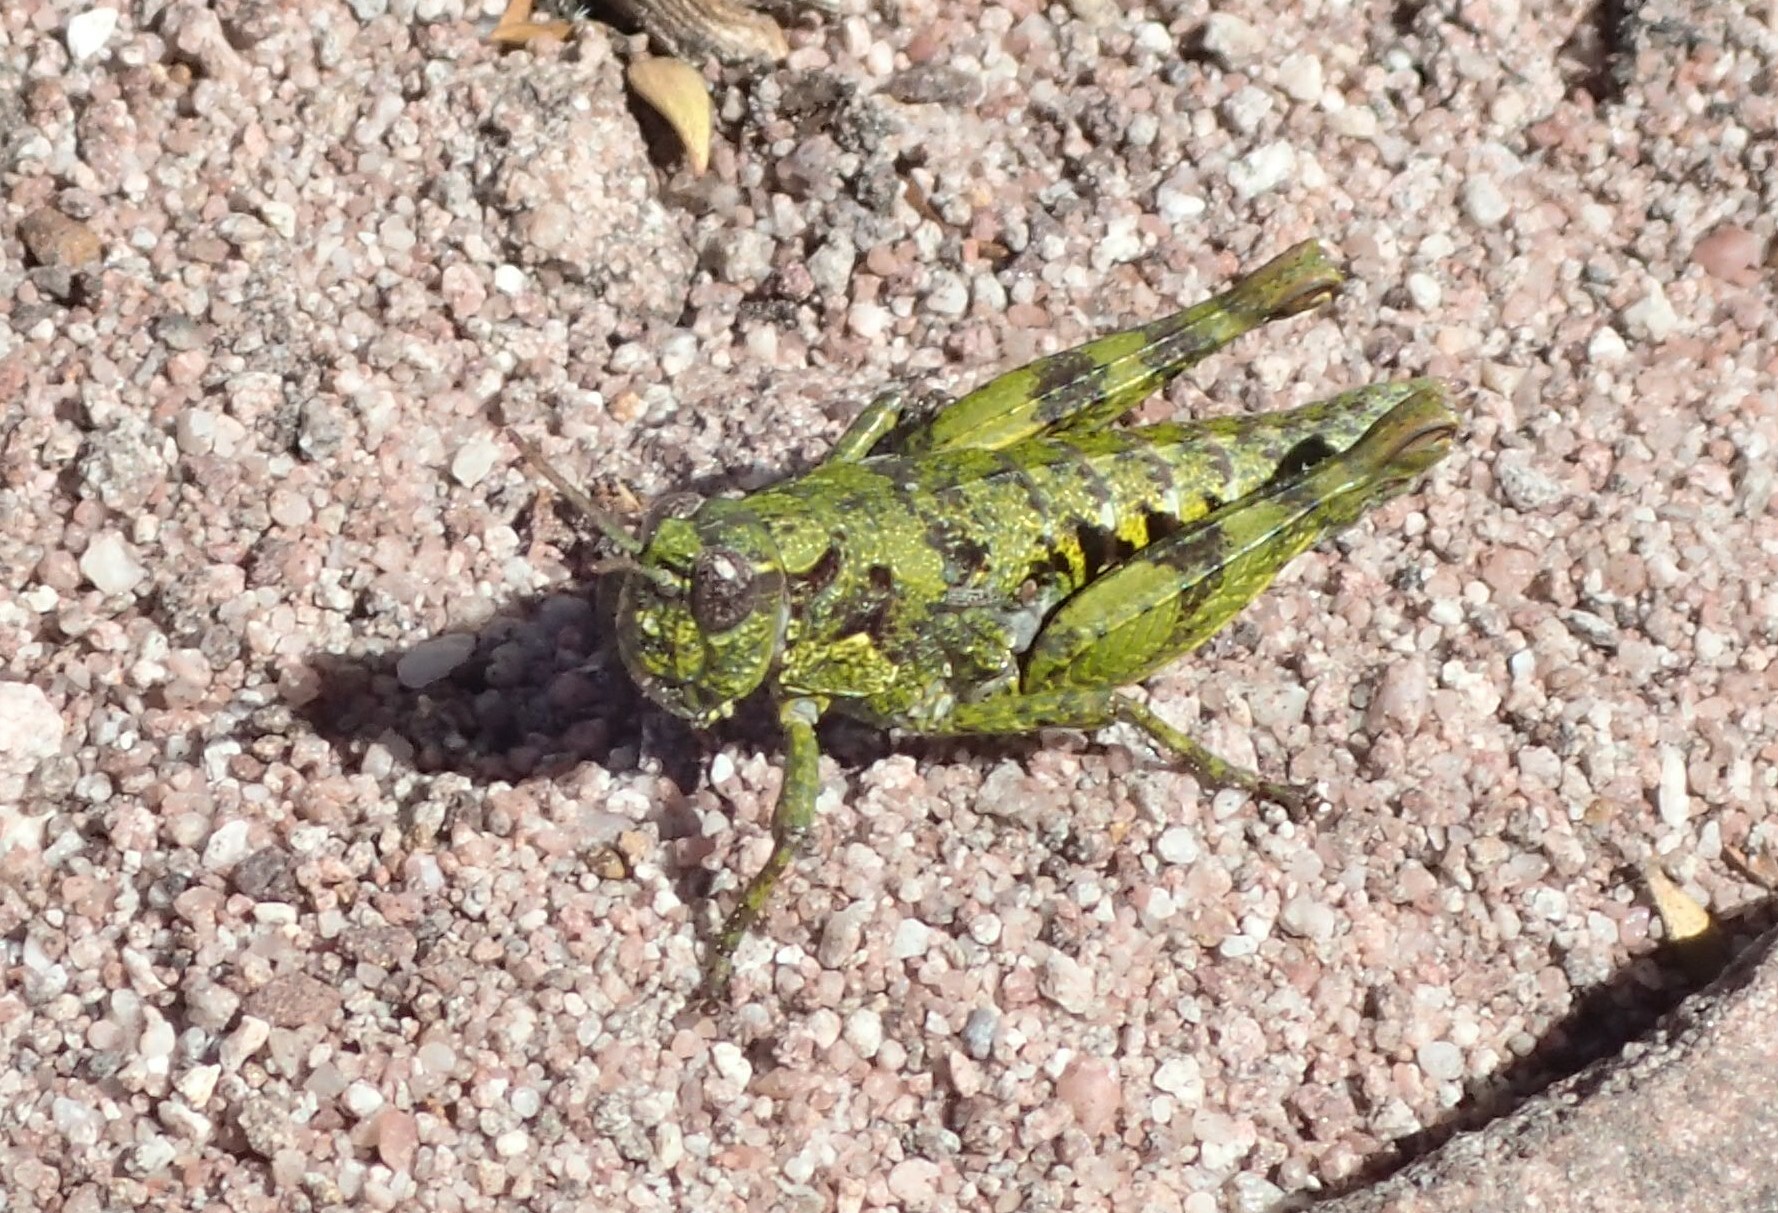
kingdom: Animalia
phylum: Arthropoda
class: Insecta
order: Orthoptera
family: Acrididae
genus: Tasmaniacris
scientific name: Tasmaniacris tasmaniensis
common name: Tasmanian grasshopper
